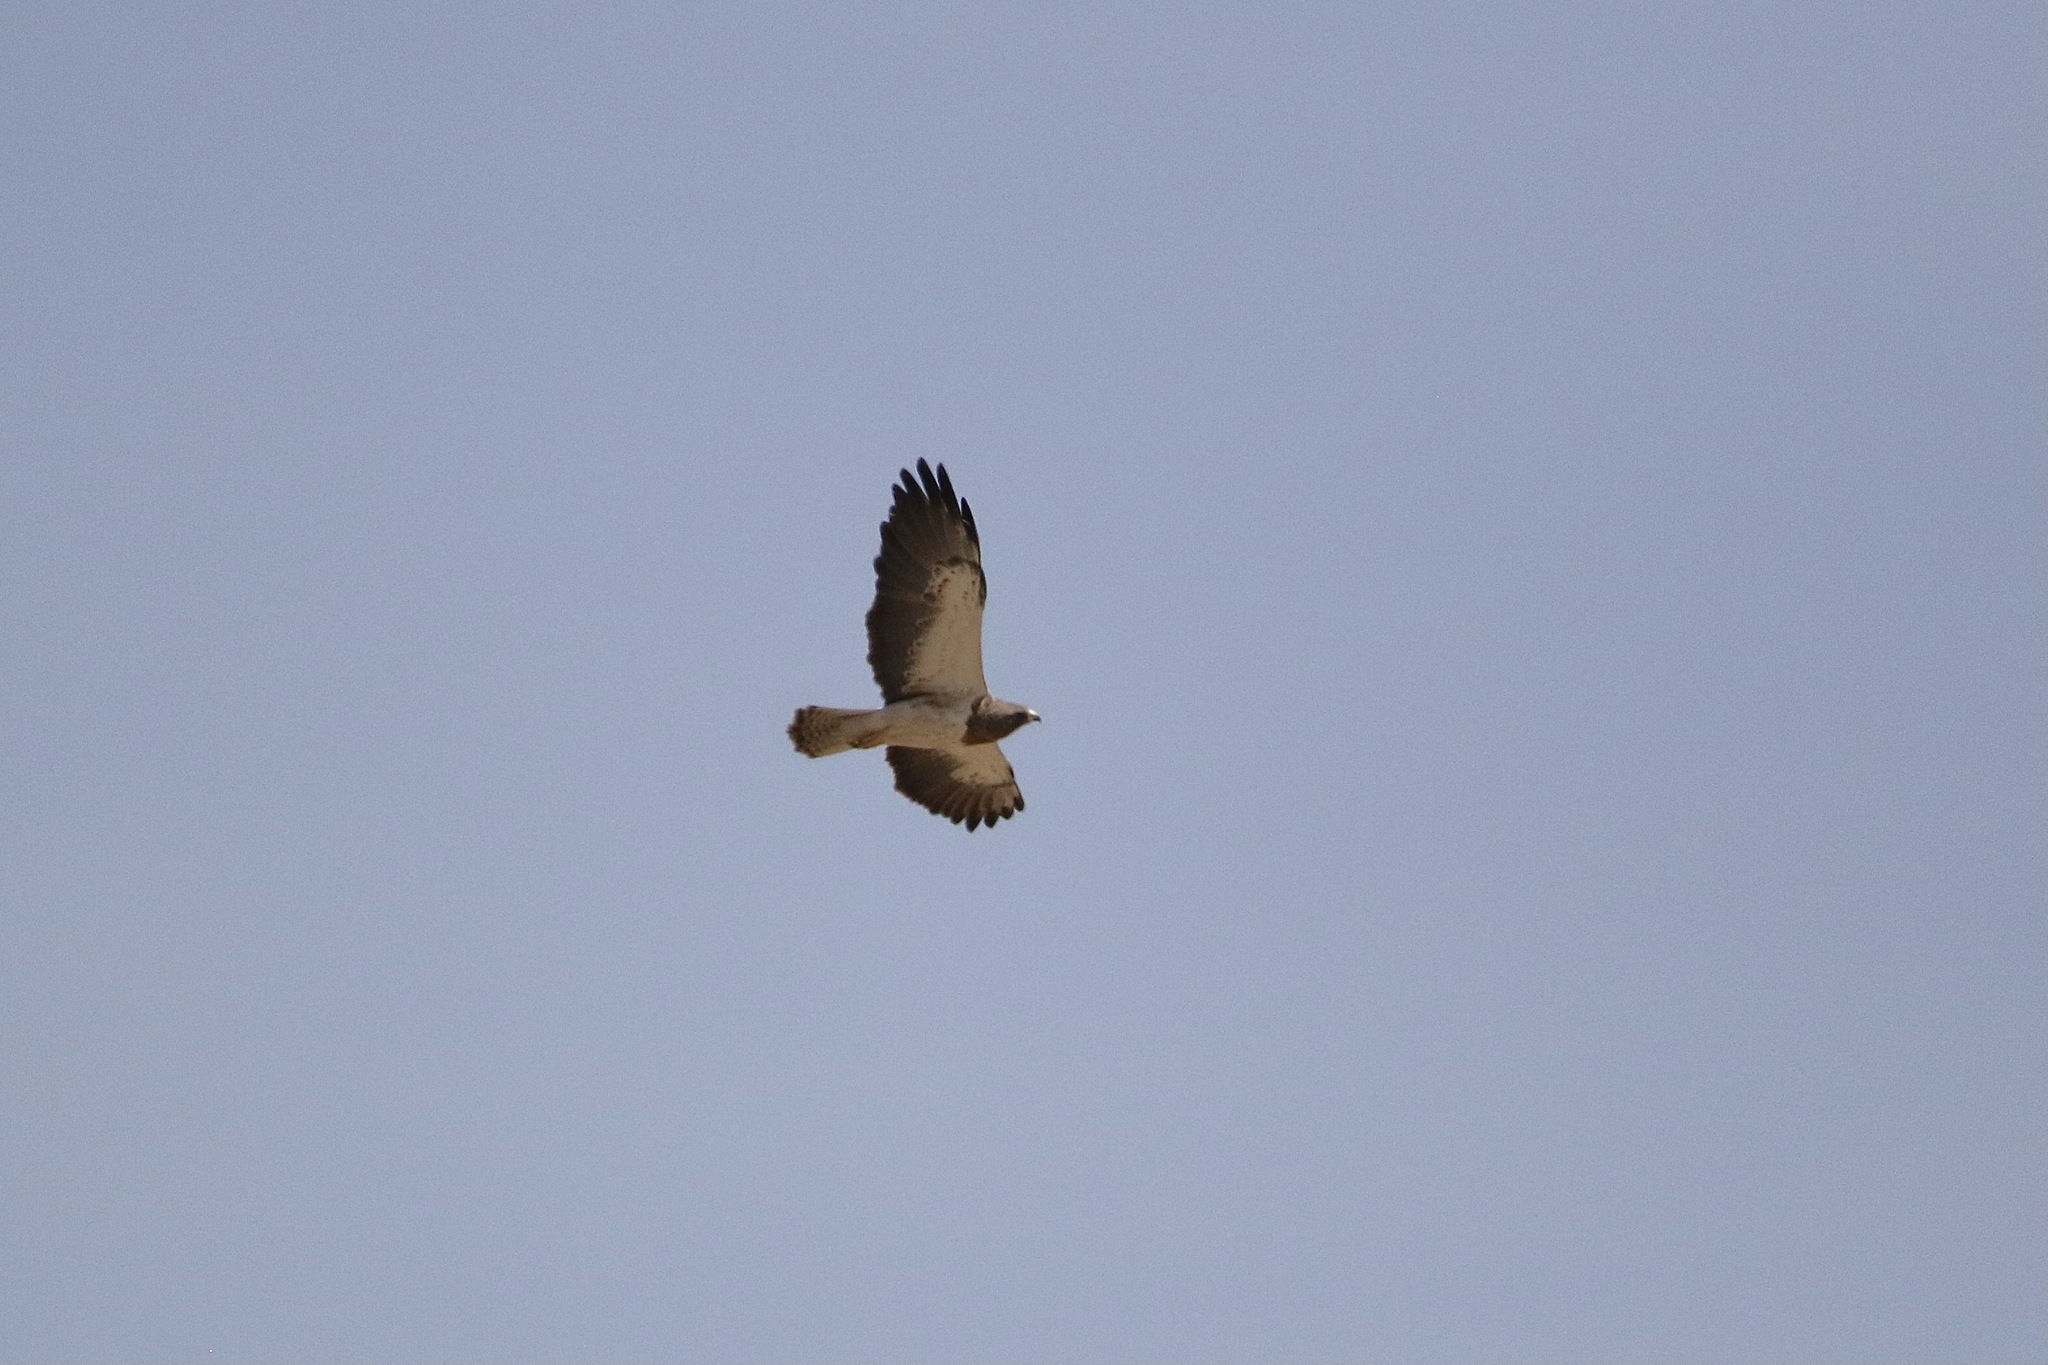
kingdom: Animalia
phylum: Chordata
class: Aves
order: Accipitriformes
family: Accipitridae
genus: Buteo
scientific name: Buteo swainsoni
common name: Swainson's hawk
